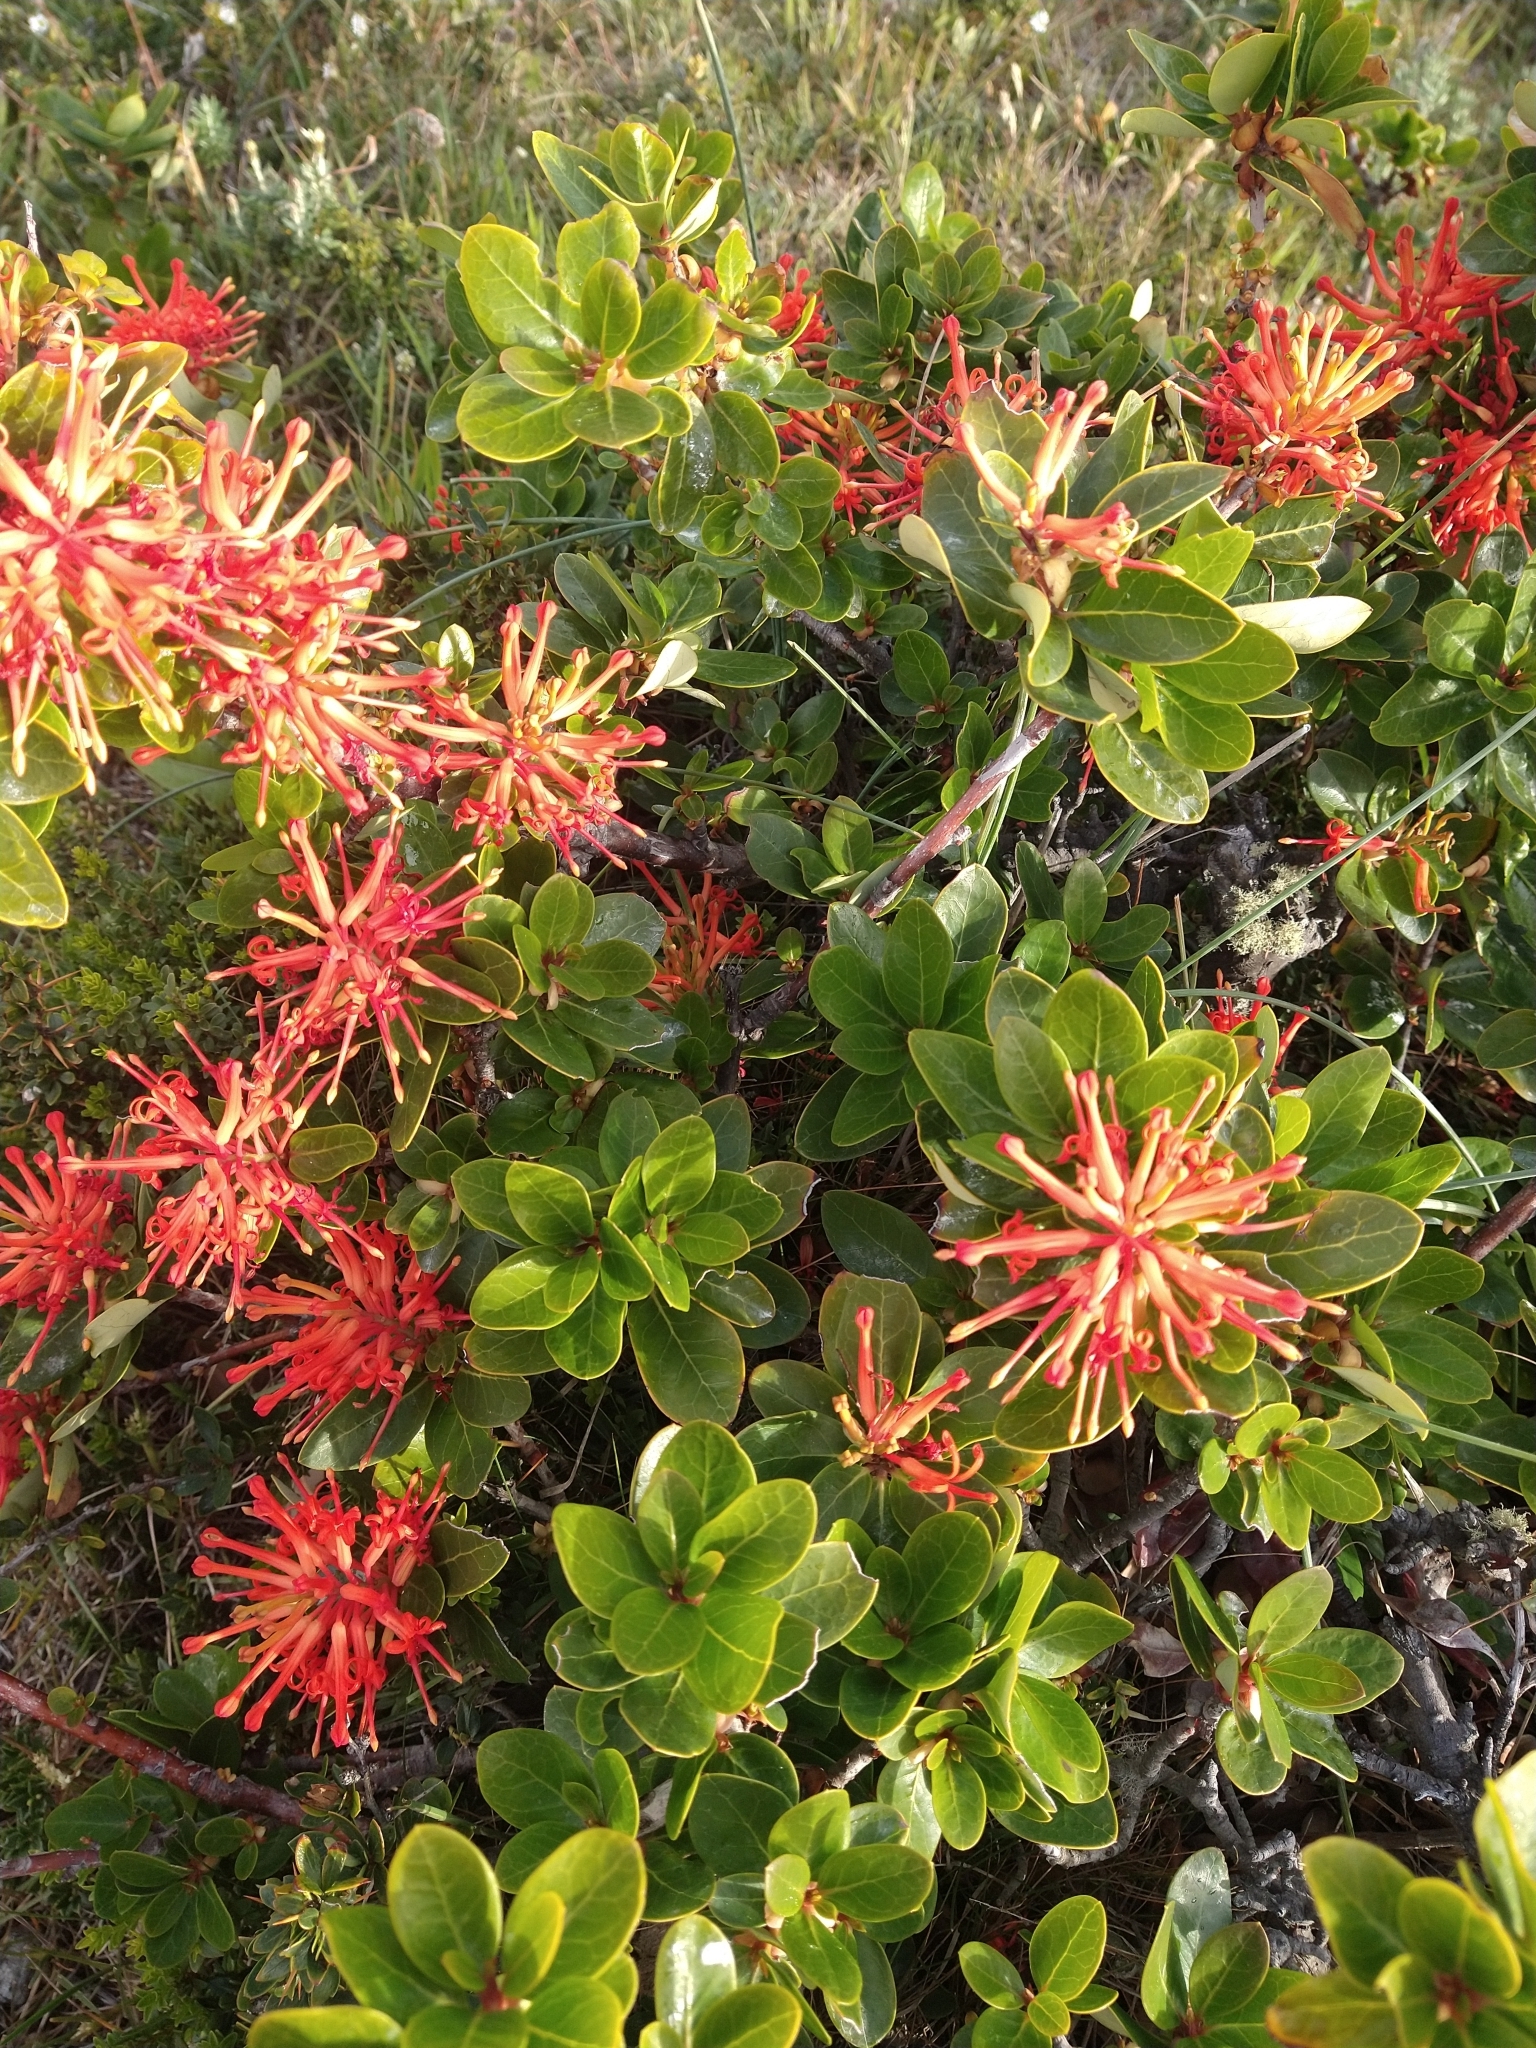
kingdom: Plantae
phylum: Tracheophyta
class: Magnoliopsida
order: Proteales
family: Proteaceae
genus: Embothrium
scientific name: Embothrium coccineum
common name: Chilean firebush
